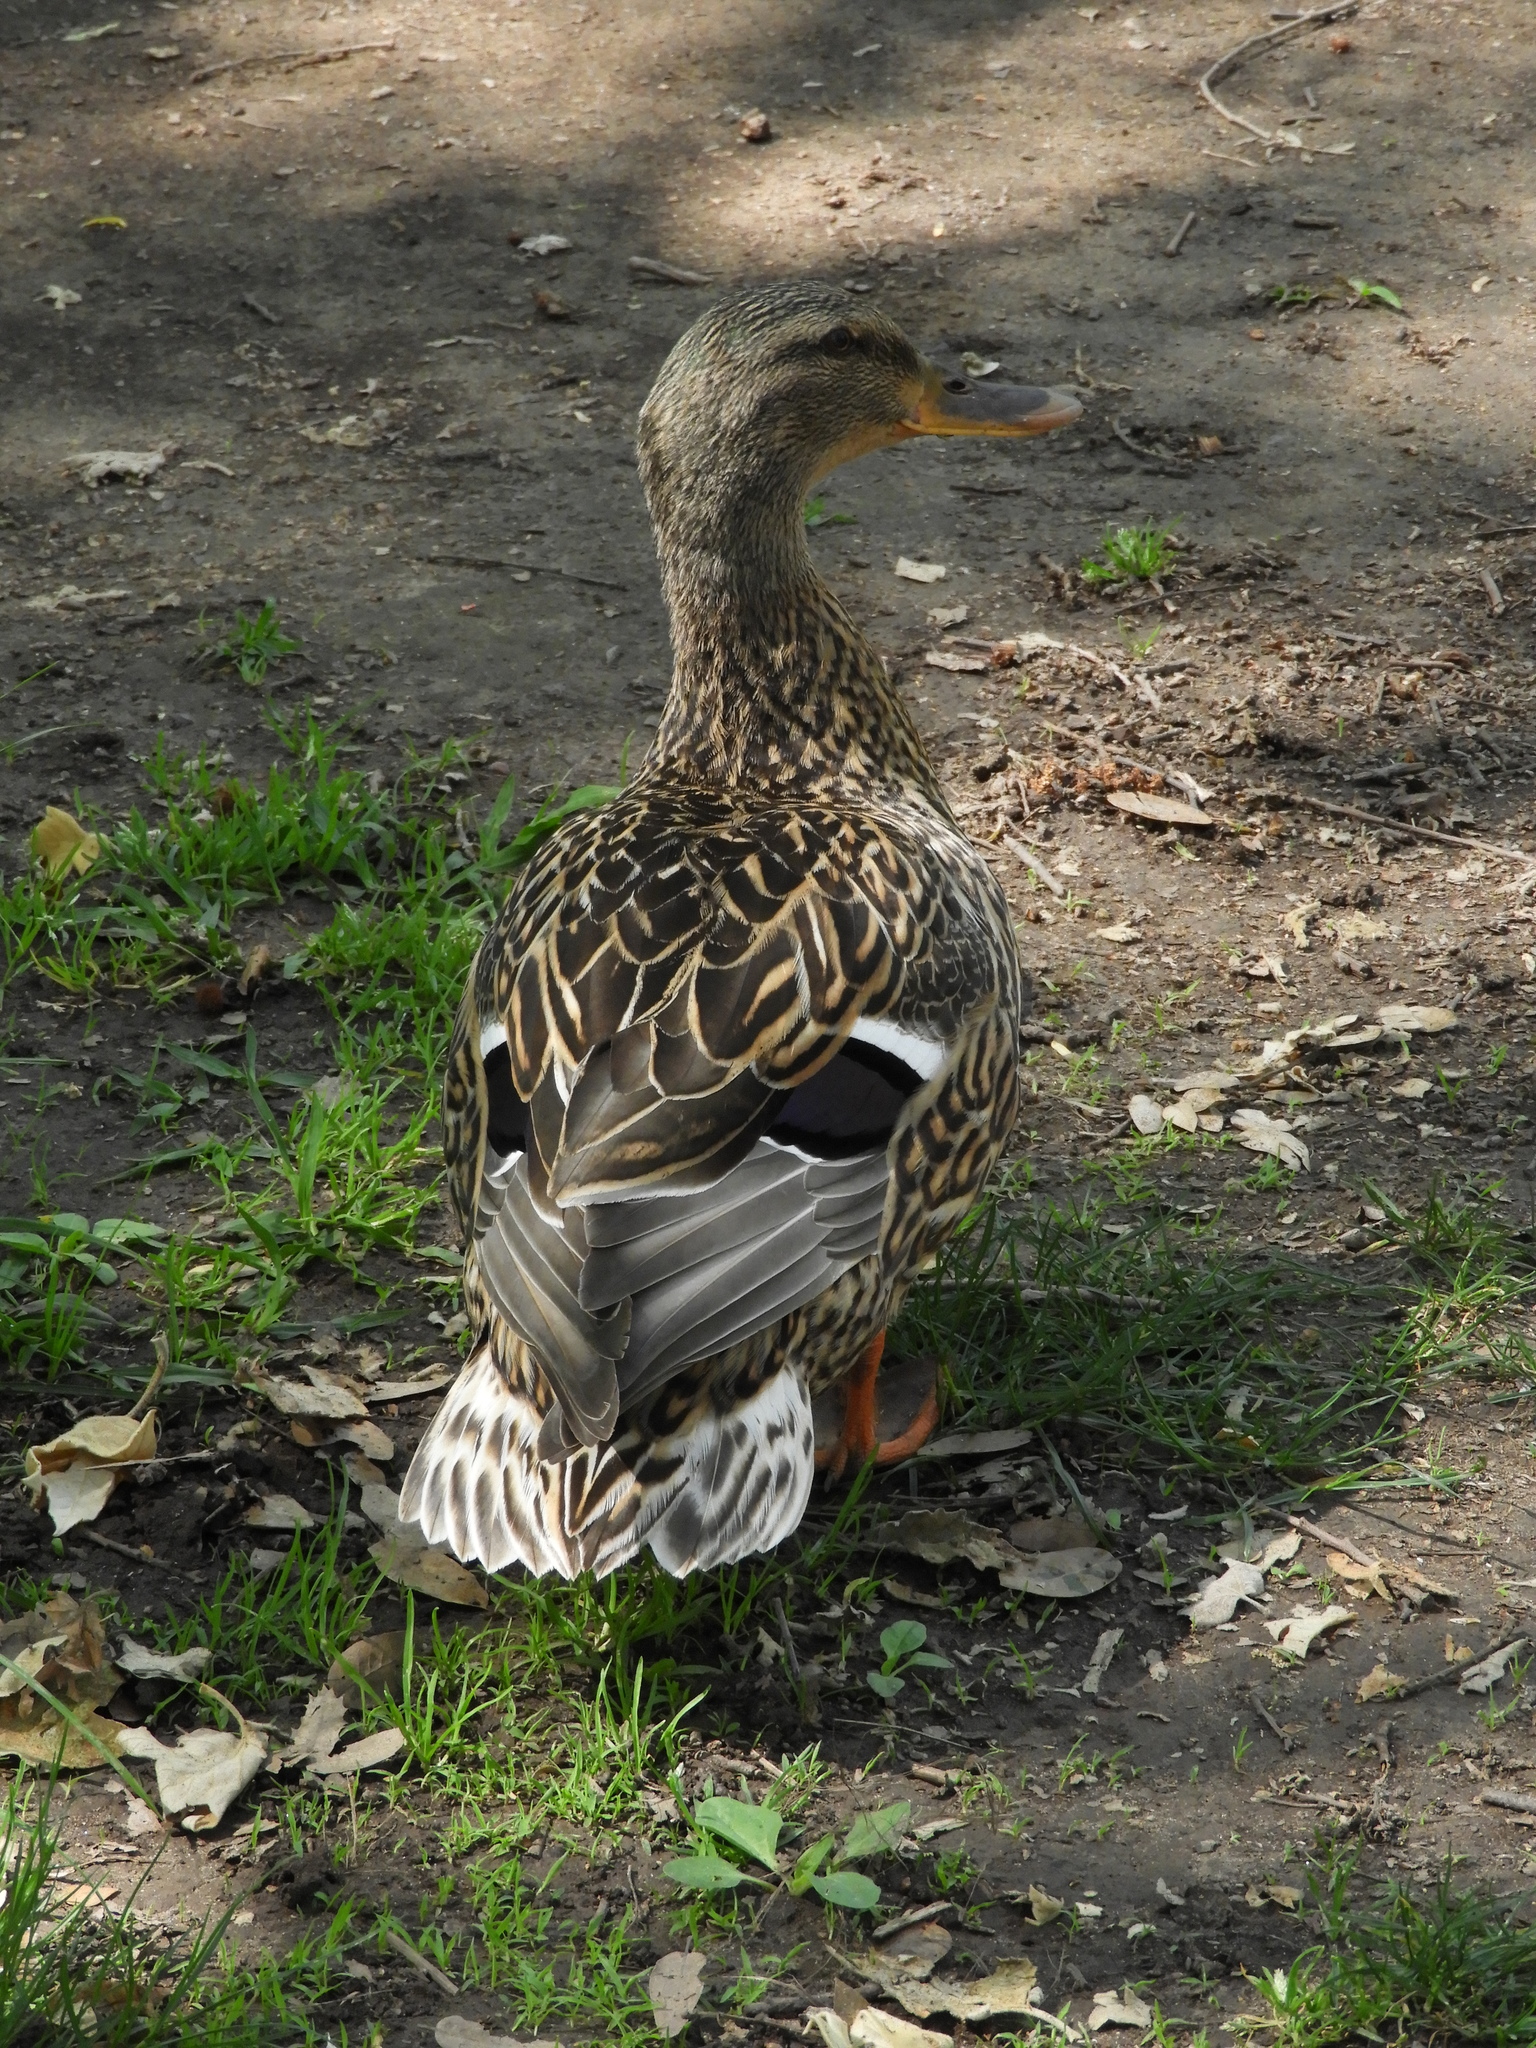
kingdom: Animalia
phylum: Chordata
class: Aves
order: Anseriformes
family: Anatidae
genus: Anas
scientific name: Anas platyrhynchos
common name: Mallard
